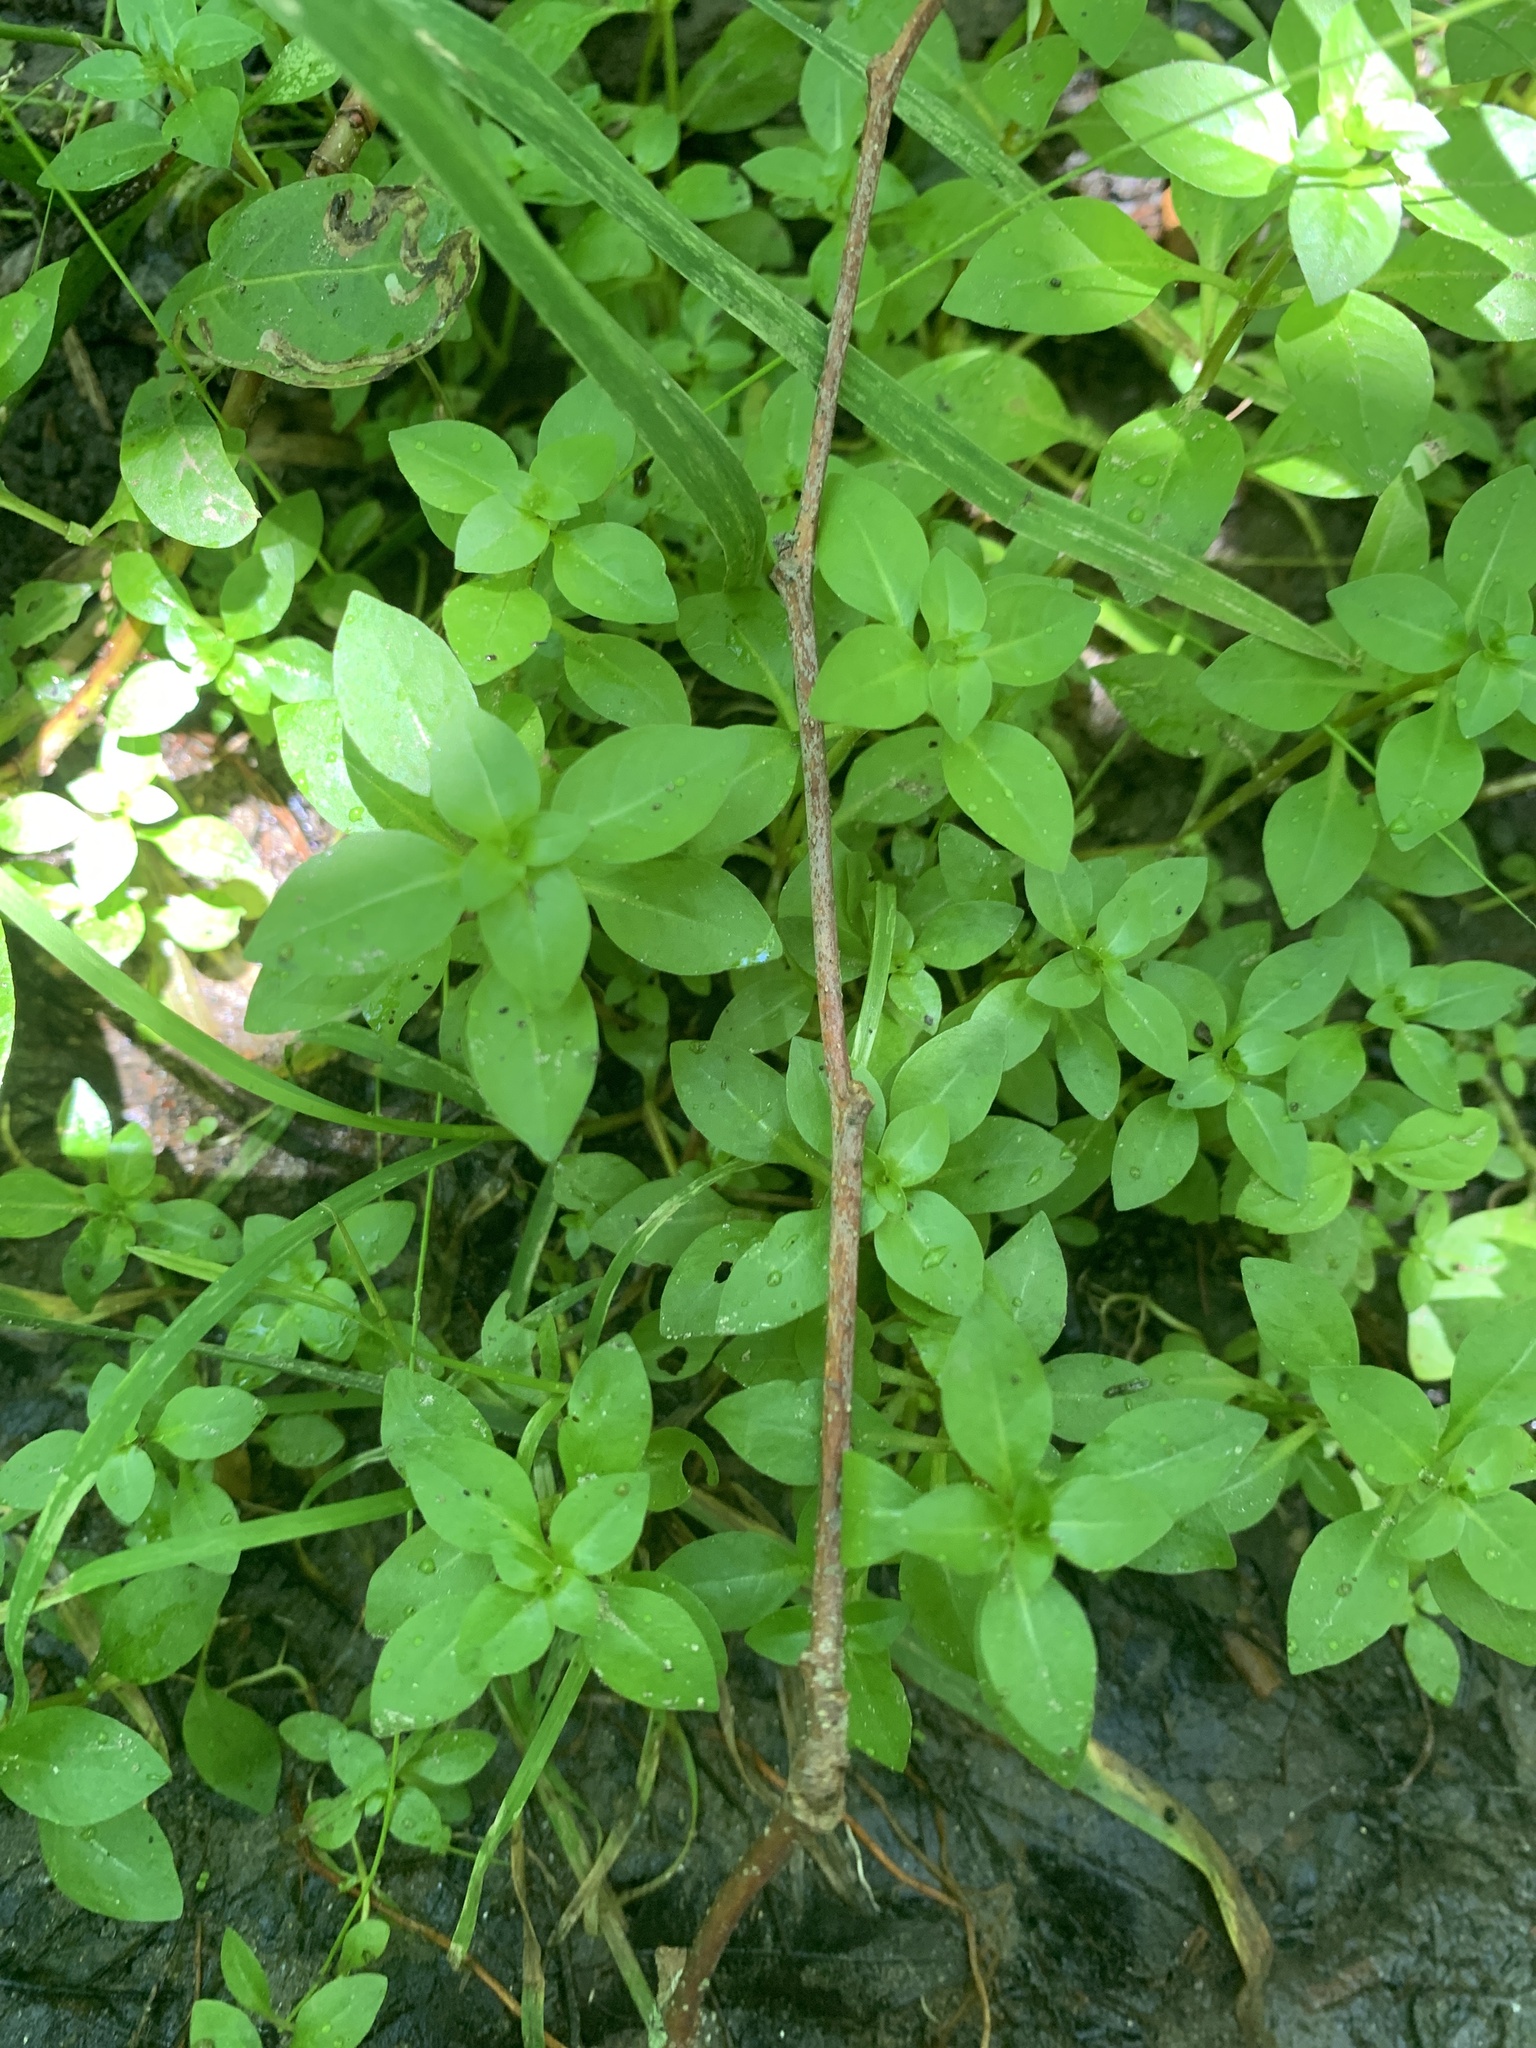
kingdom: Plantae
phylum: Tracheophyta
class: Magnoliopsida
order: Myrtales
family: Onagraceae
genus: Ludwigia
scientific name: Ludwigia palustris
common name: Hampshire-purslane
